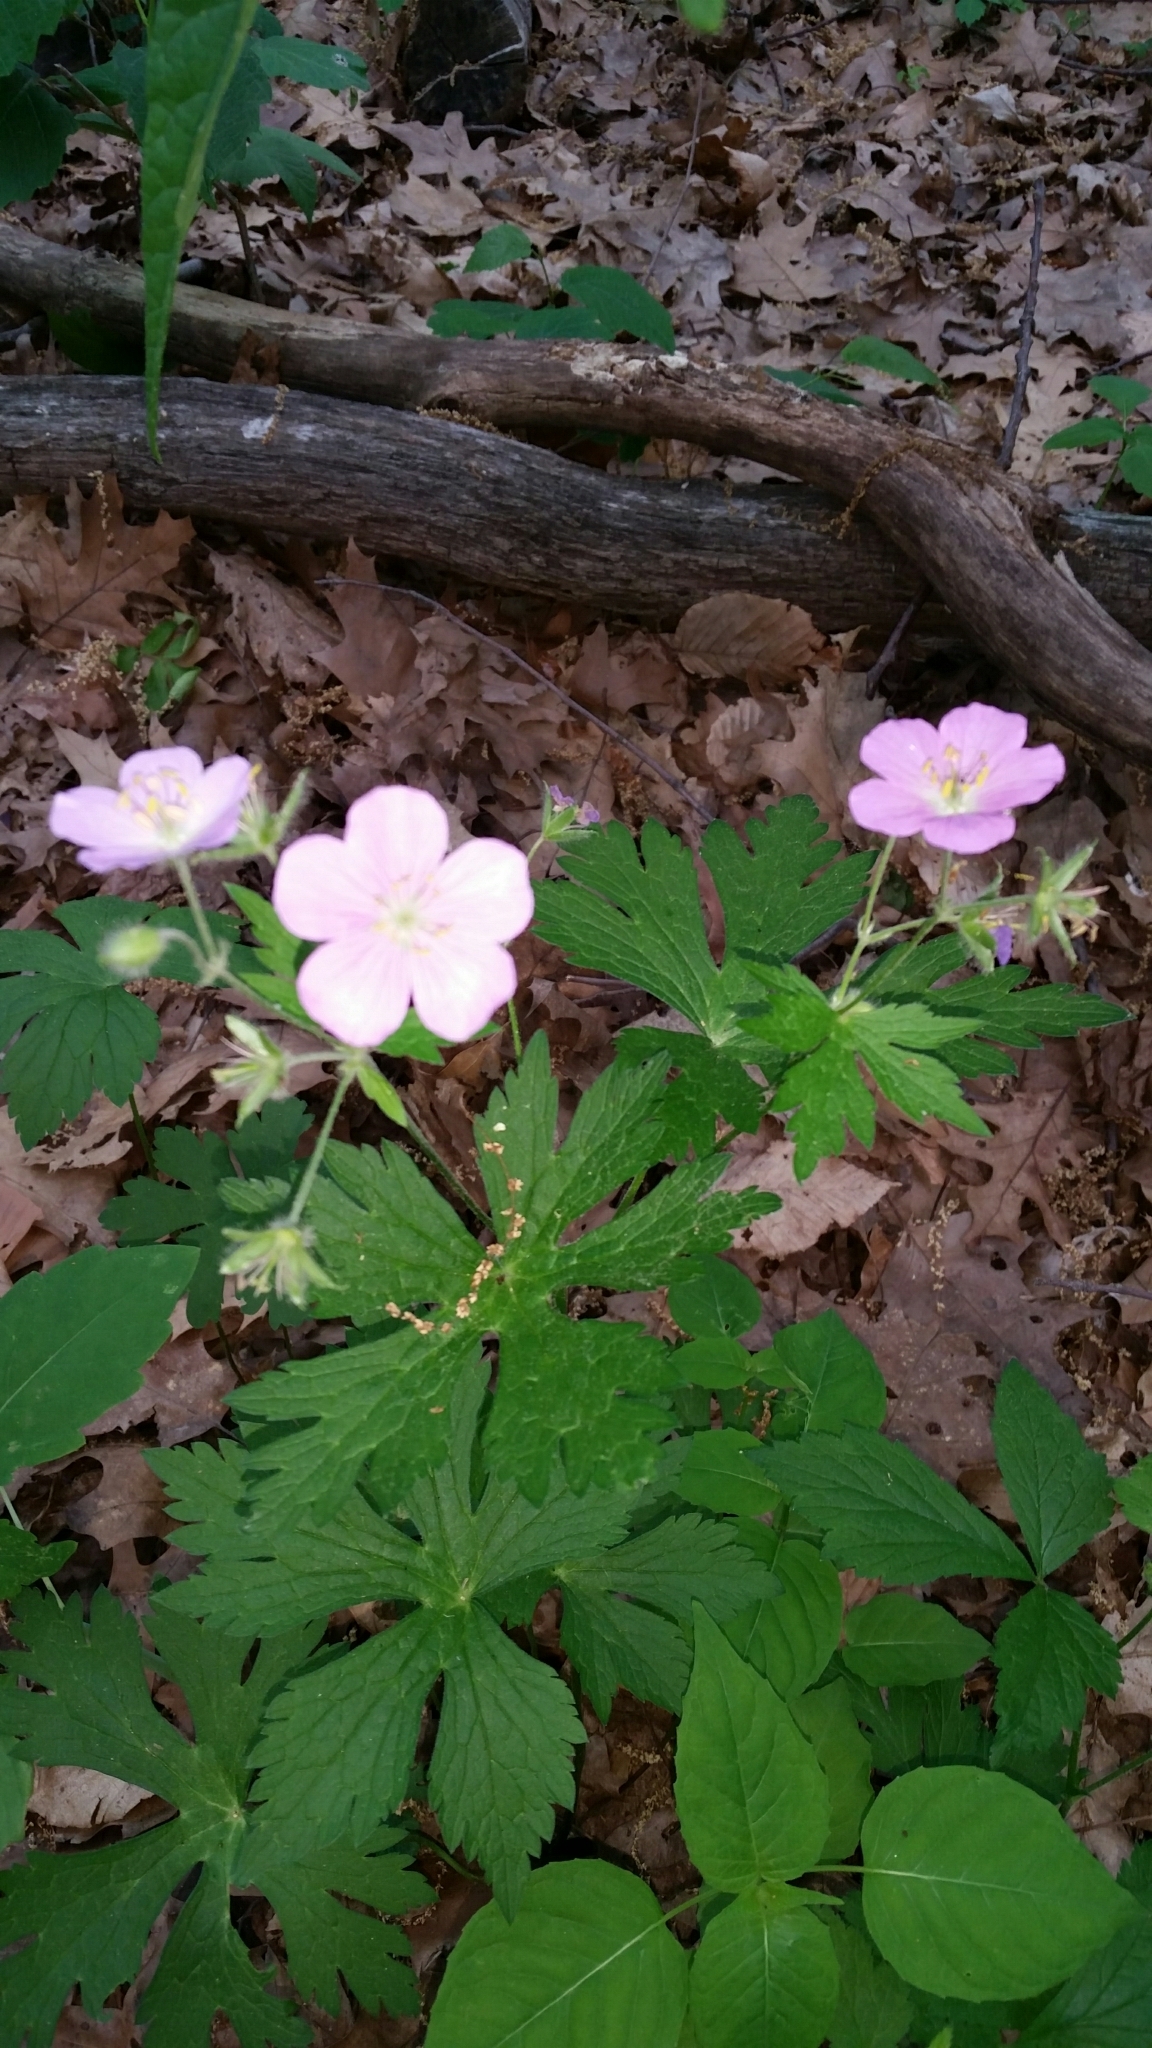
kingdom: Plantae
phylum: Tracheophyta
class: Magnoliopsida
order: Geraniales
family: Geraniaceae
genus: Geranium
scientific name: Geranium maculatum
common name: Spotted geranium
